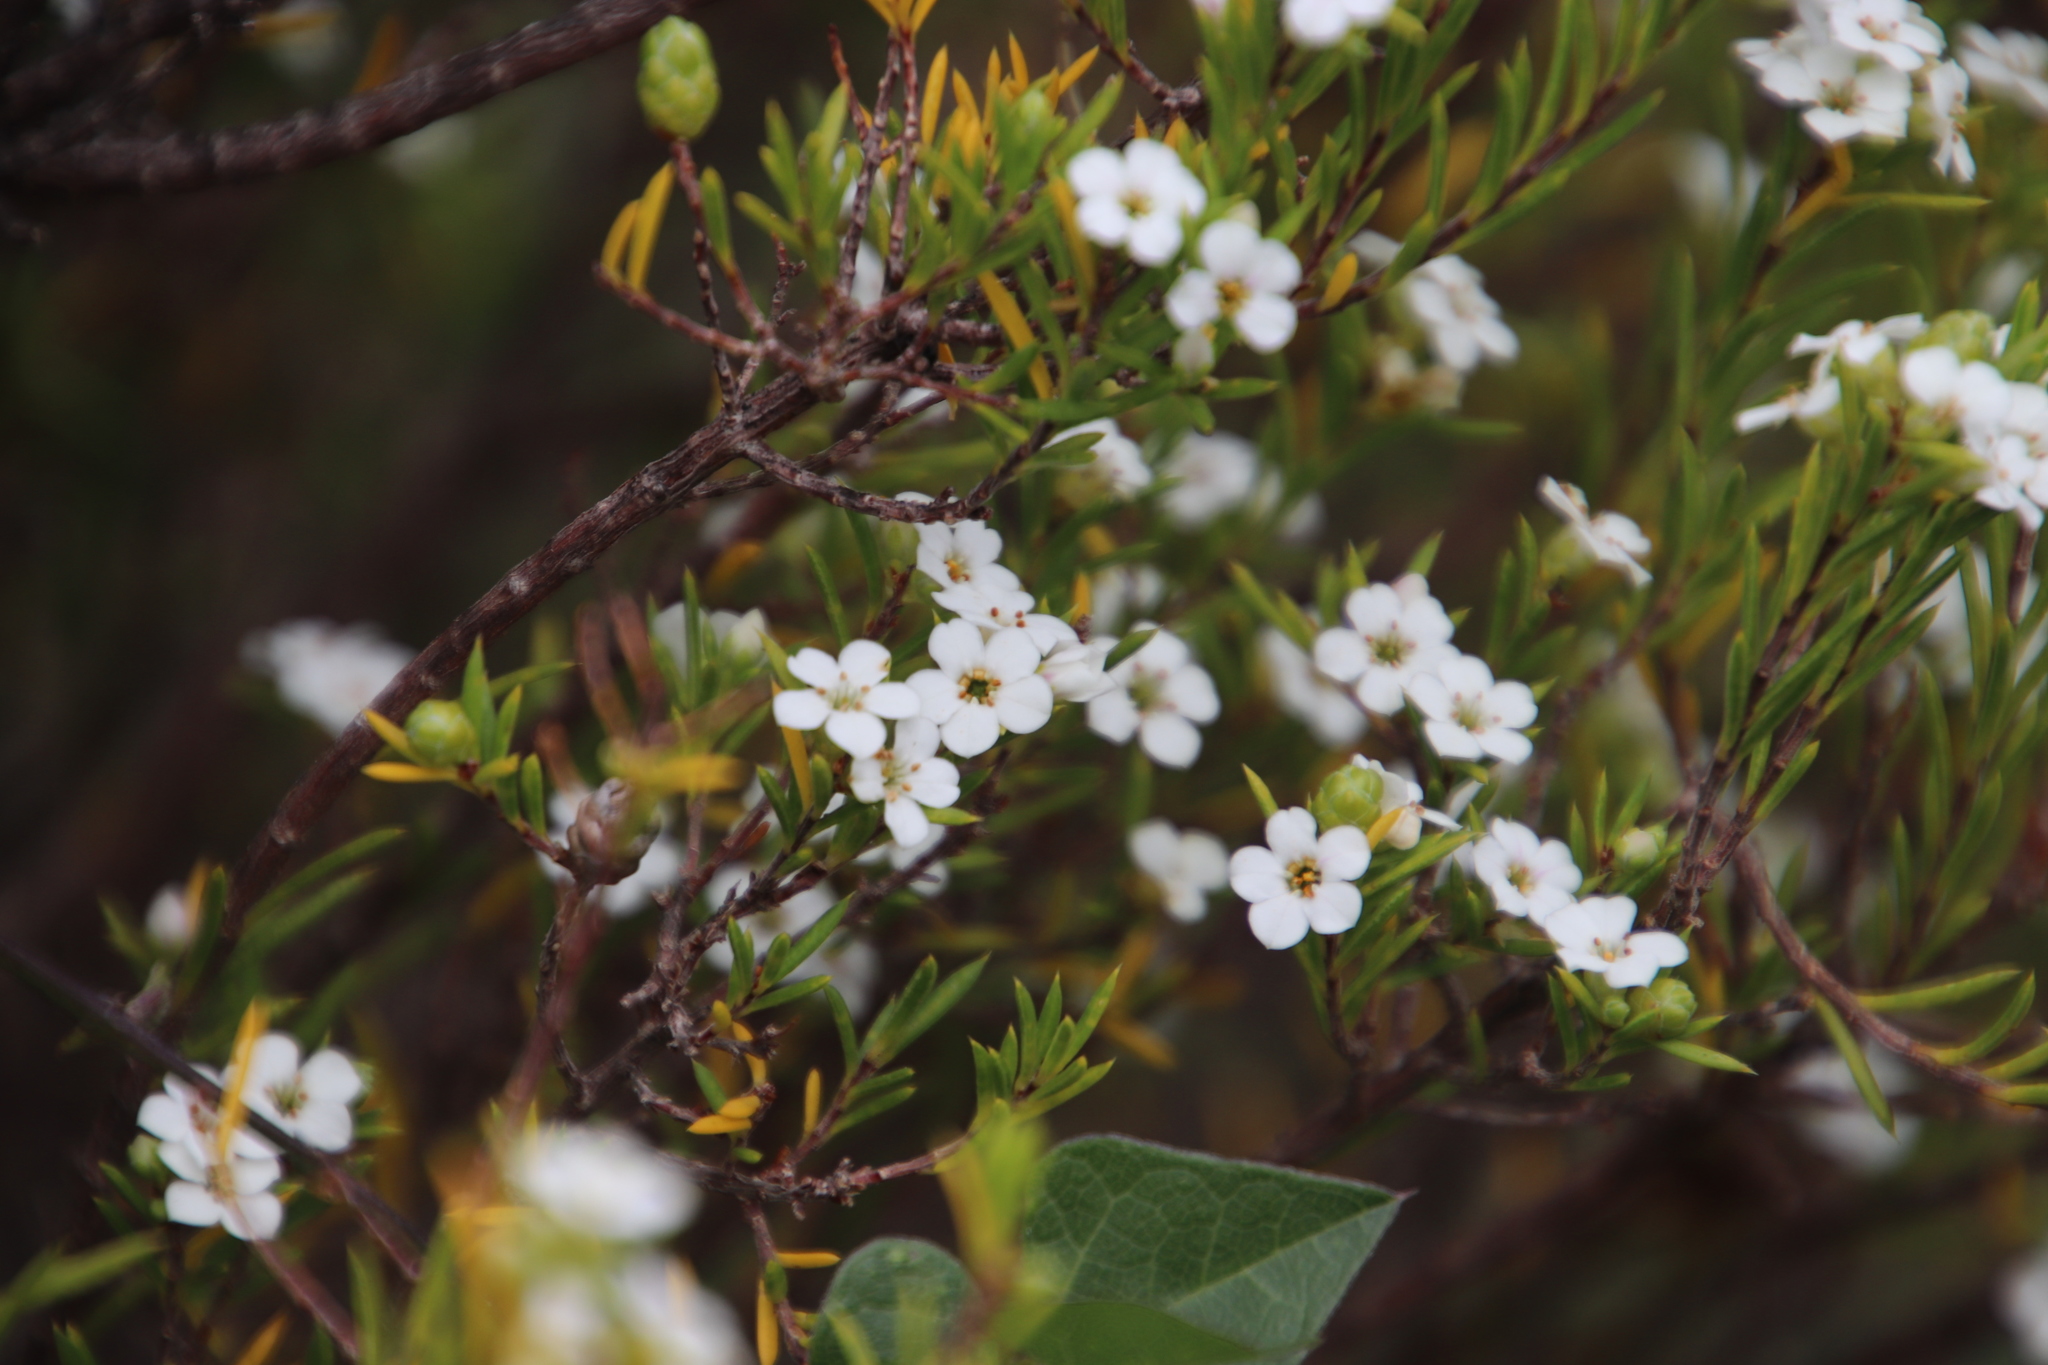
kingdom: Plantae
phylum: Tracheophyta
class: Magnoliopsida
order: Sapindales
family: Rutaceae
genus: Coleonema
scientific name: Coleonema album
